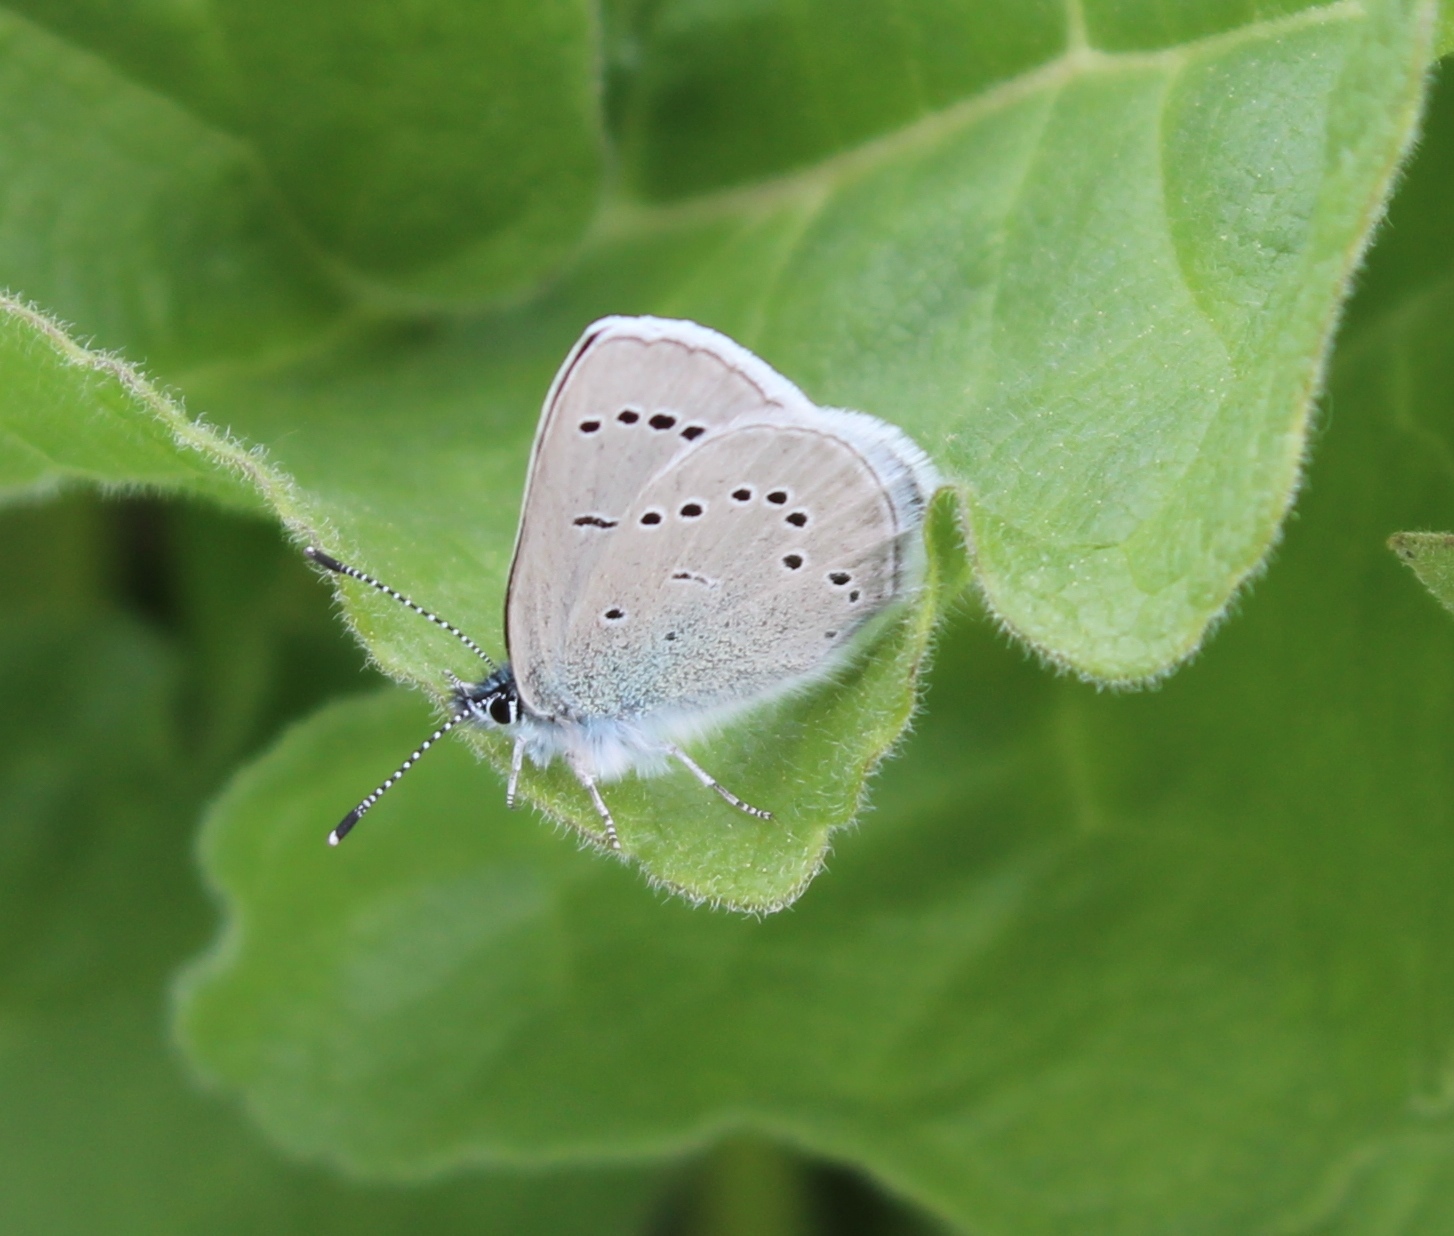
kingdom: Animalia
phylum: Arthropoda
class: Insecta
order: Lepidoptera
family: Lycaenidae
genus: Glaucopsyche
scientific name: Glaucopsyche lygdamus
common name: Silvery blue
